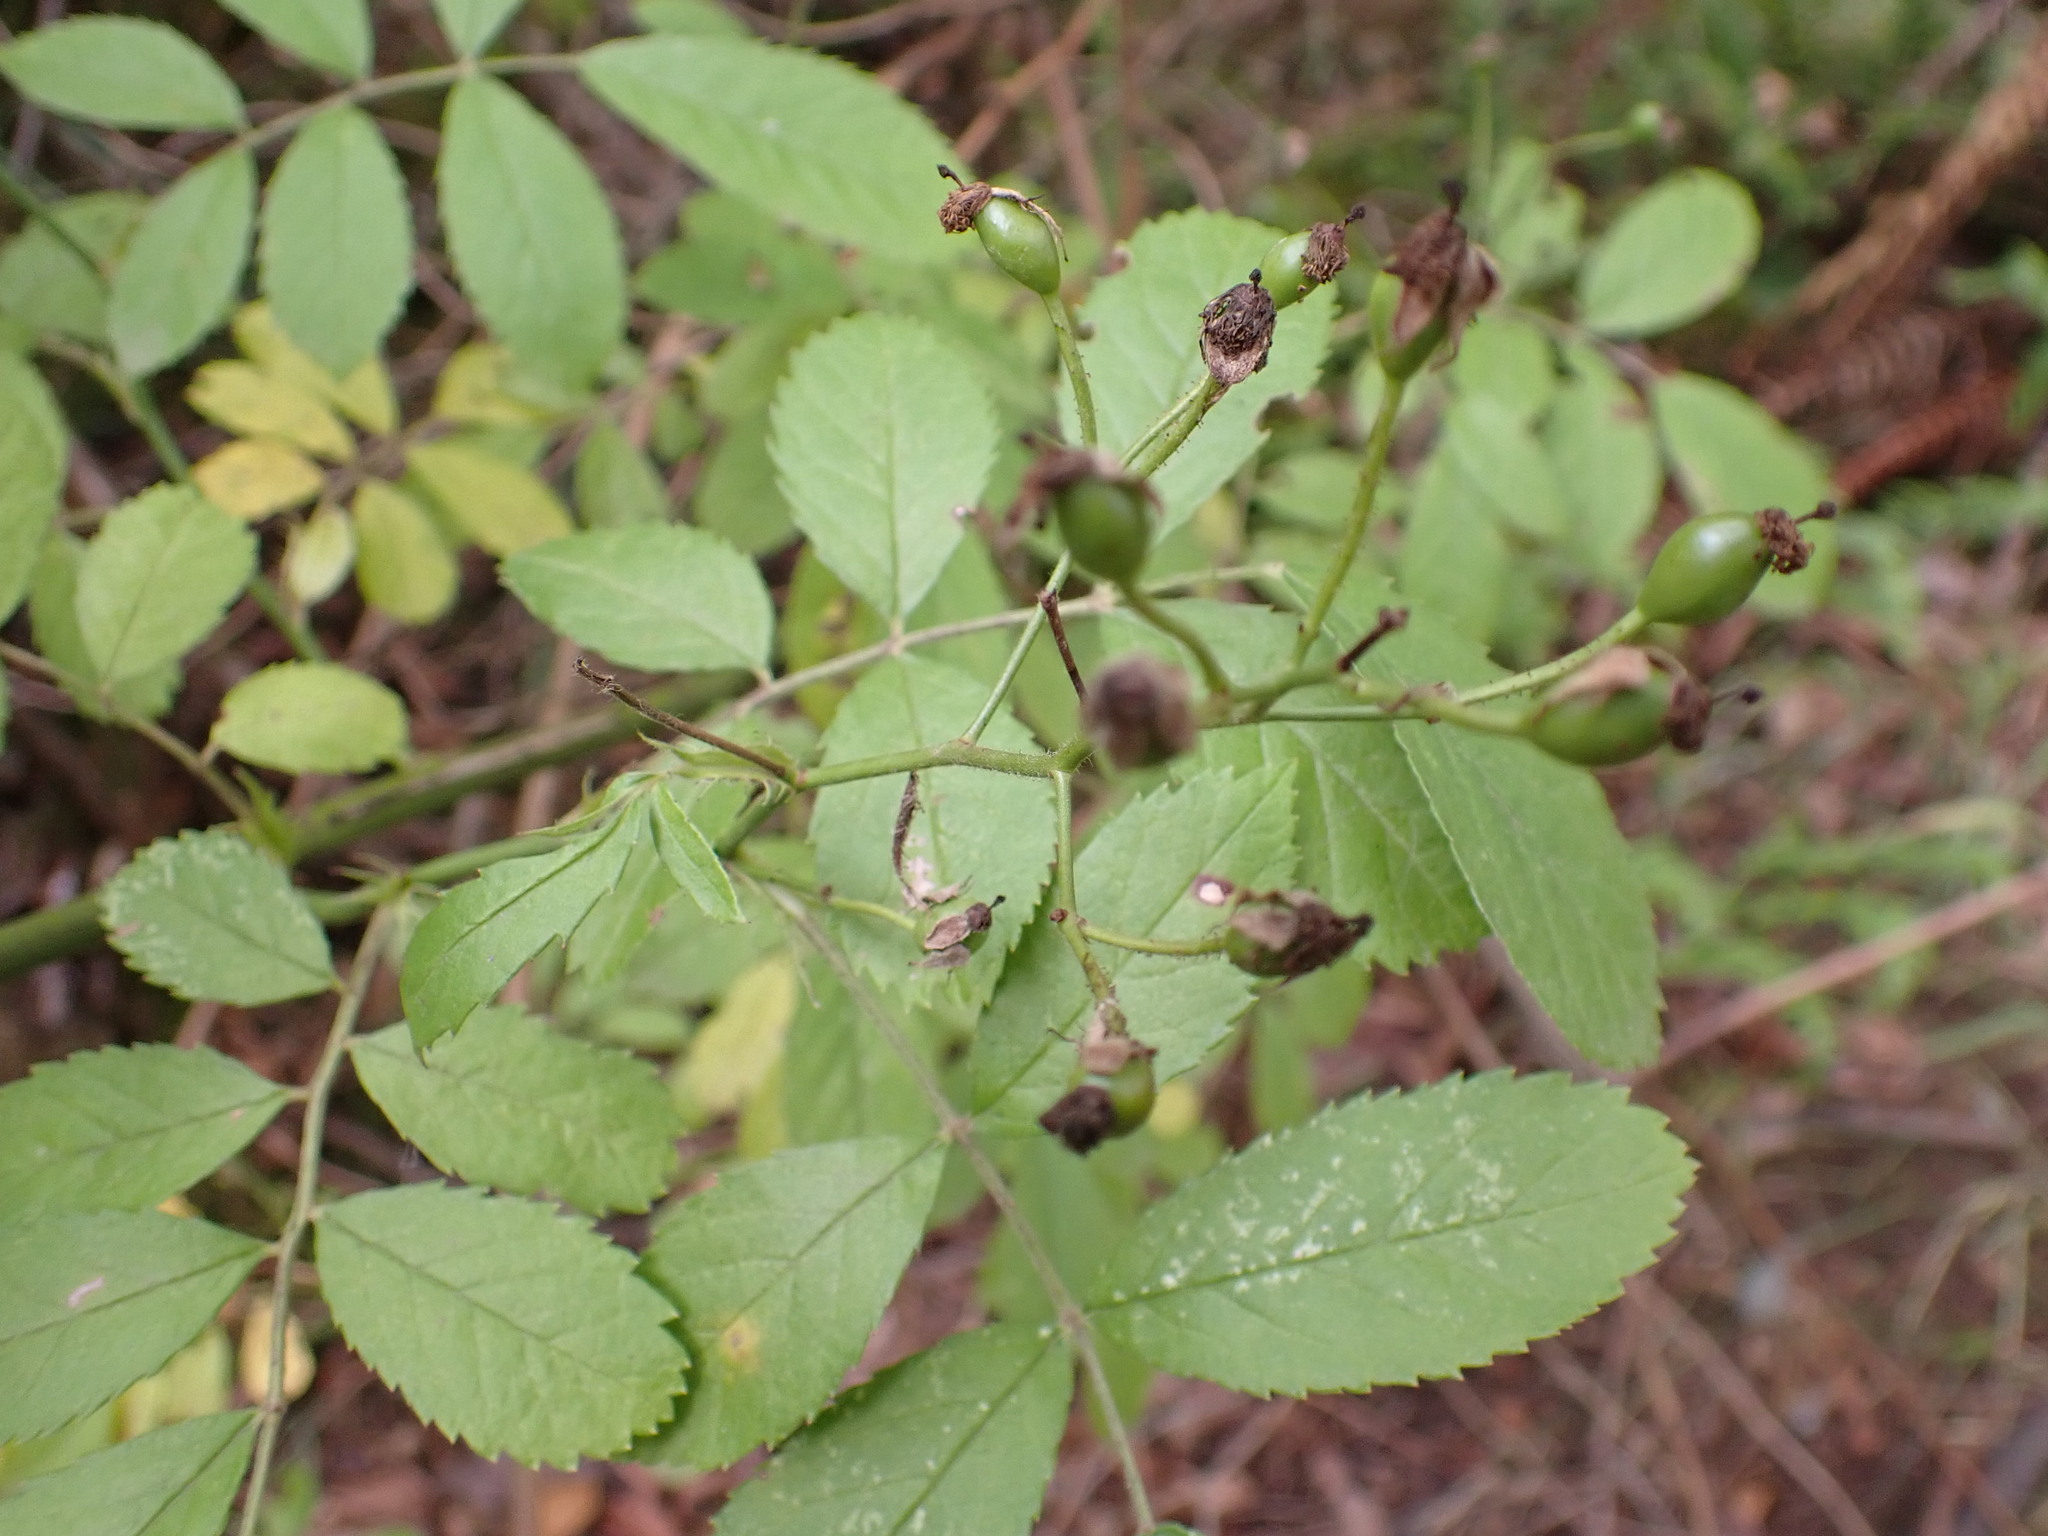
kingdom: Plantae
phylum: Tracheophyta
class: Magnoliopsida
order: Rosales
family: Rosaceae
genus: Rosa
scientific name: Rosa multiflora
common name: Multiflora rose
